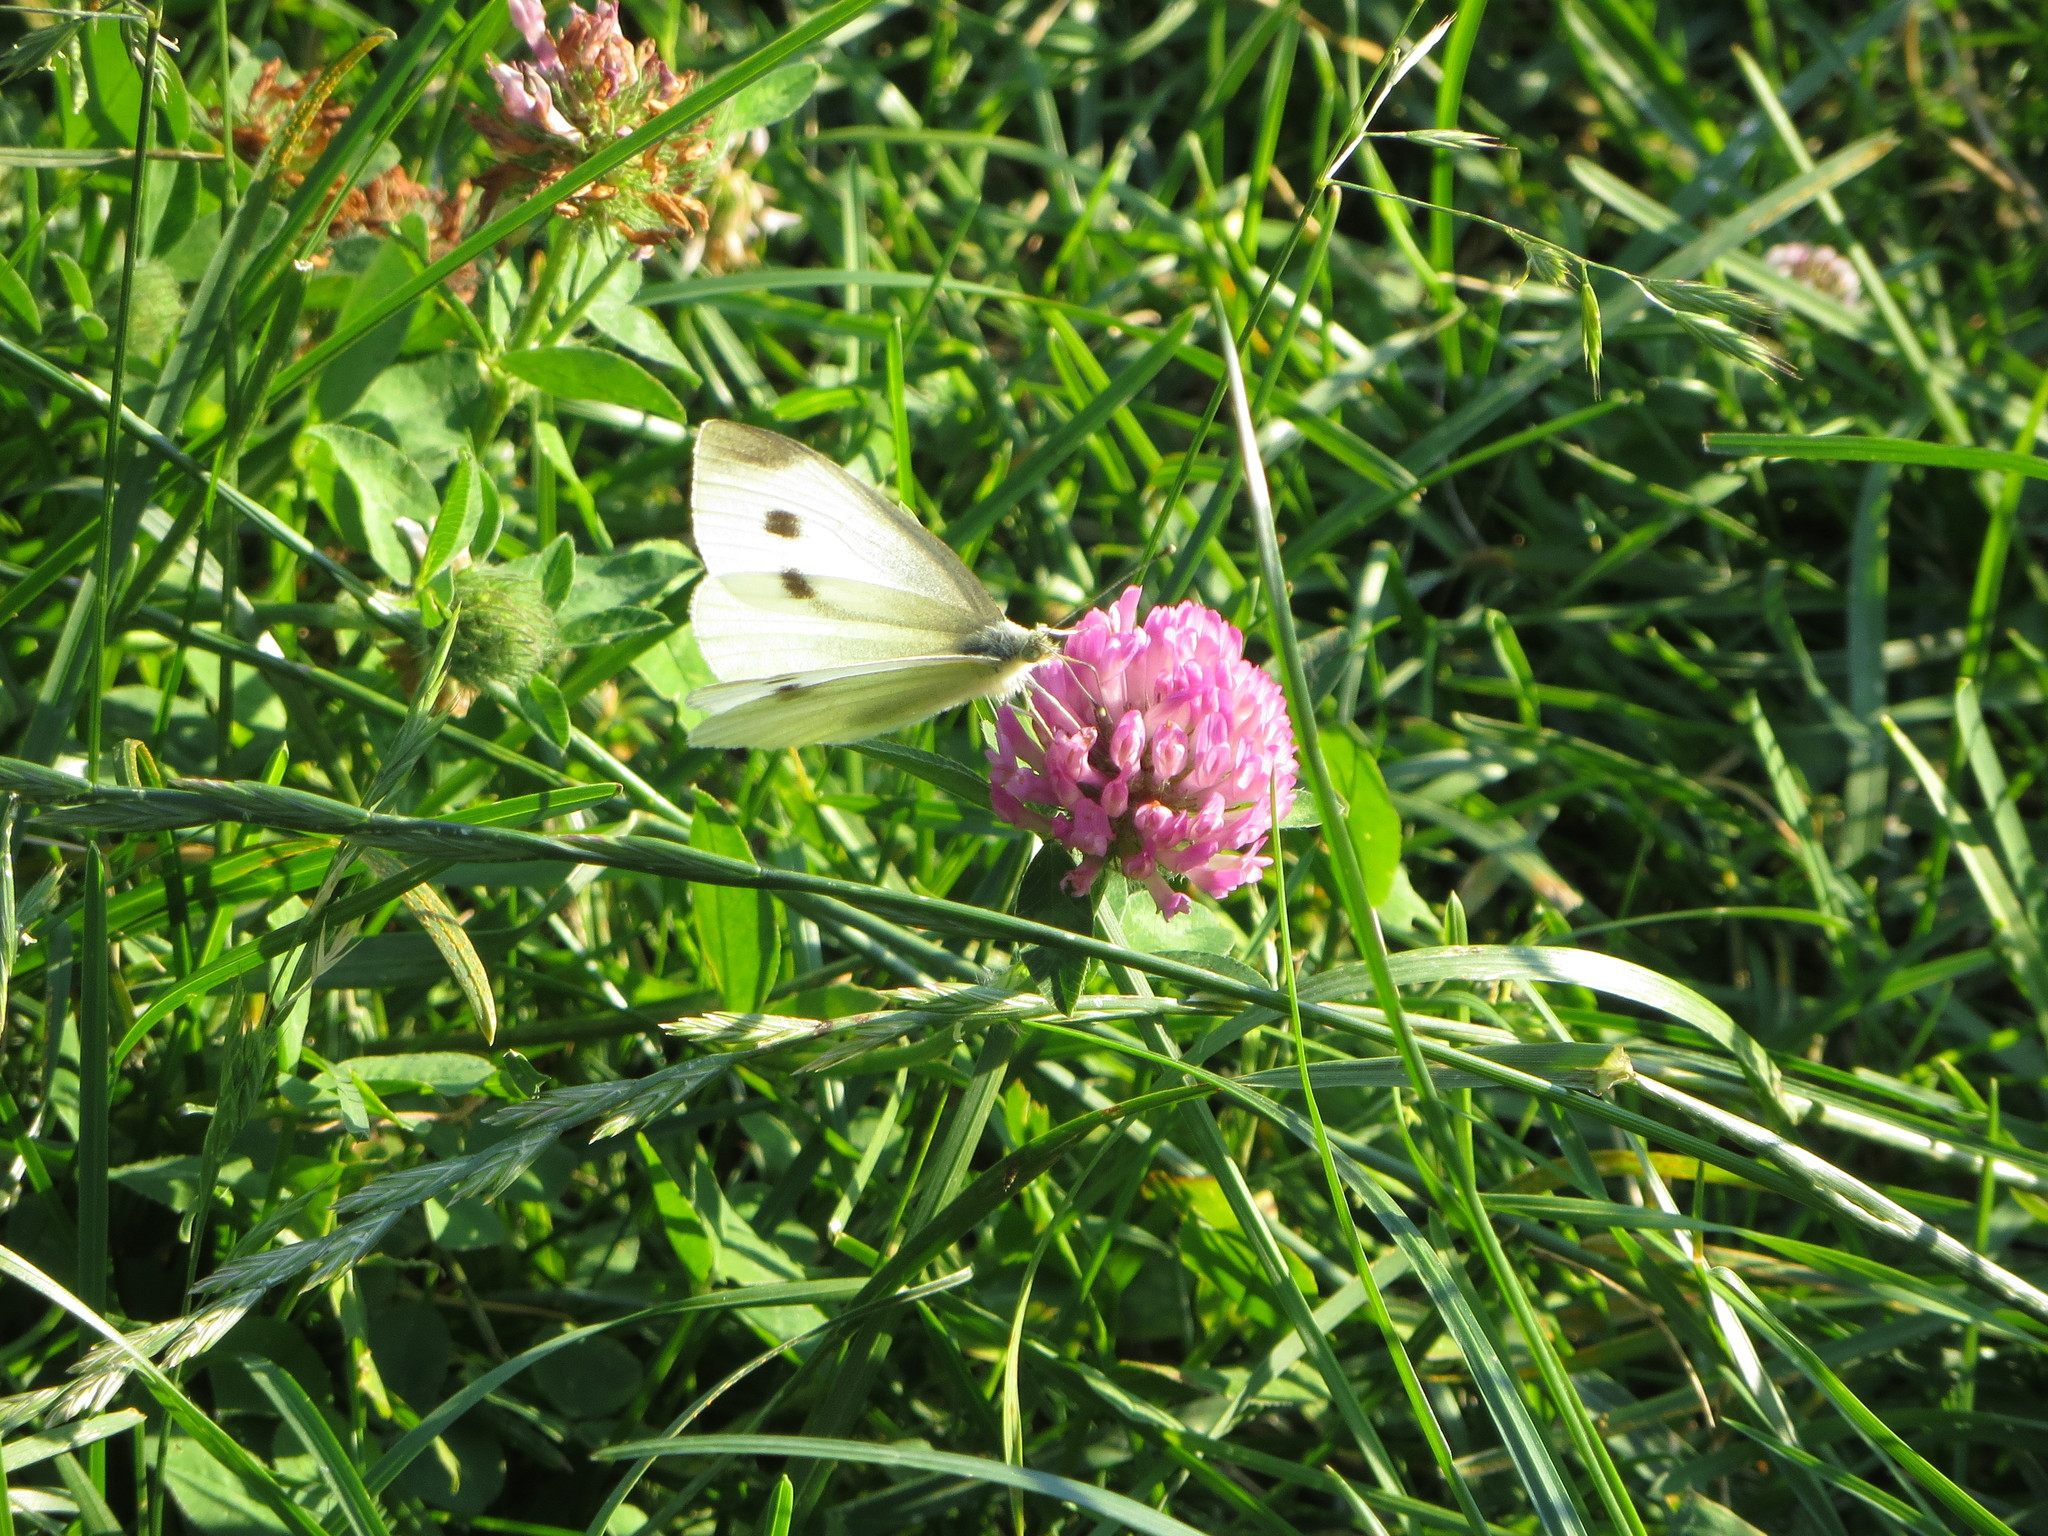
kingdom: Animalia
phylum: Arthropoda
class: Insecta
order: Lepidoptera
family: Pieridae
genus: Pieris
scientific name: Pieris rapae
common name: Small white
